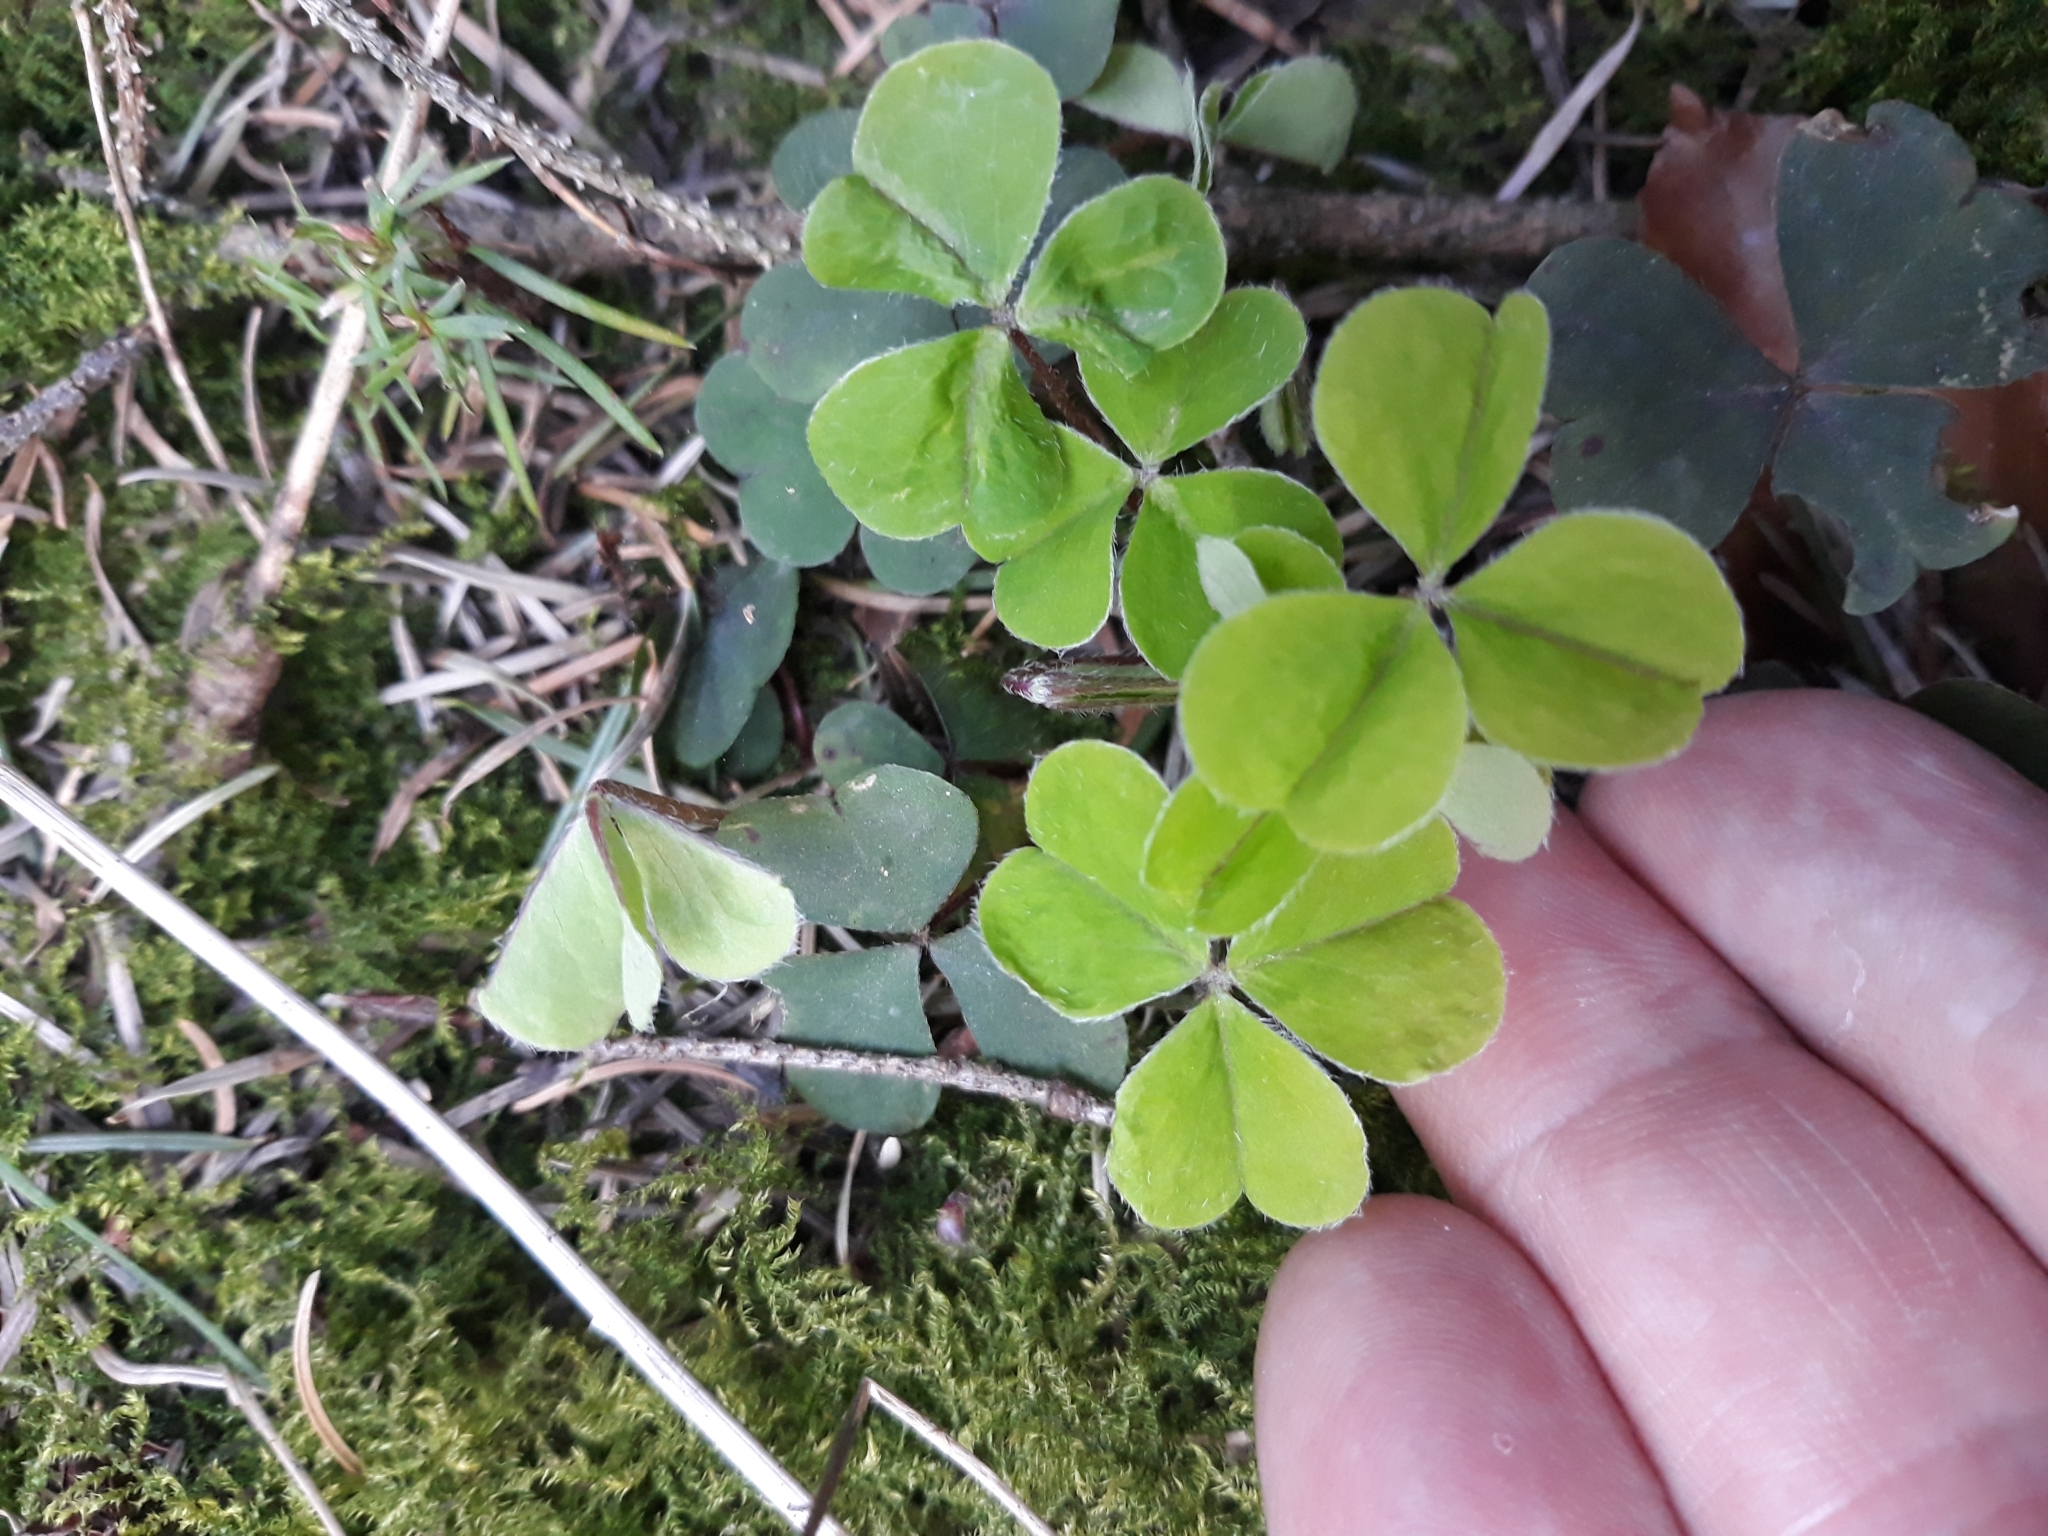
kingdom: Plantae
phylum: Tracheophyta
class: Magnoliopsida
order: Oxalidales
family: Oxalidaceae
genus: Oxalis
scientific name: Oxalis acetosella
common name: Wood-sorrel
